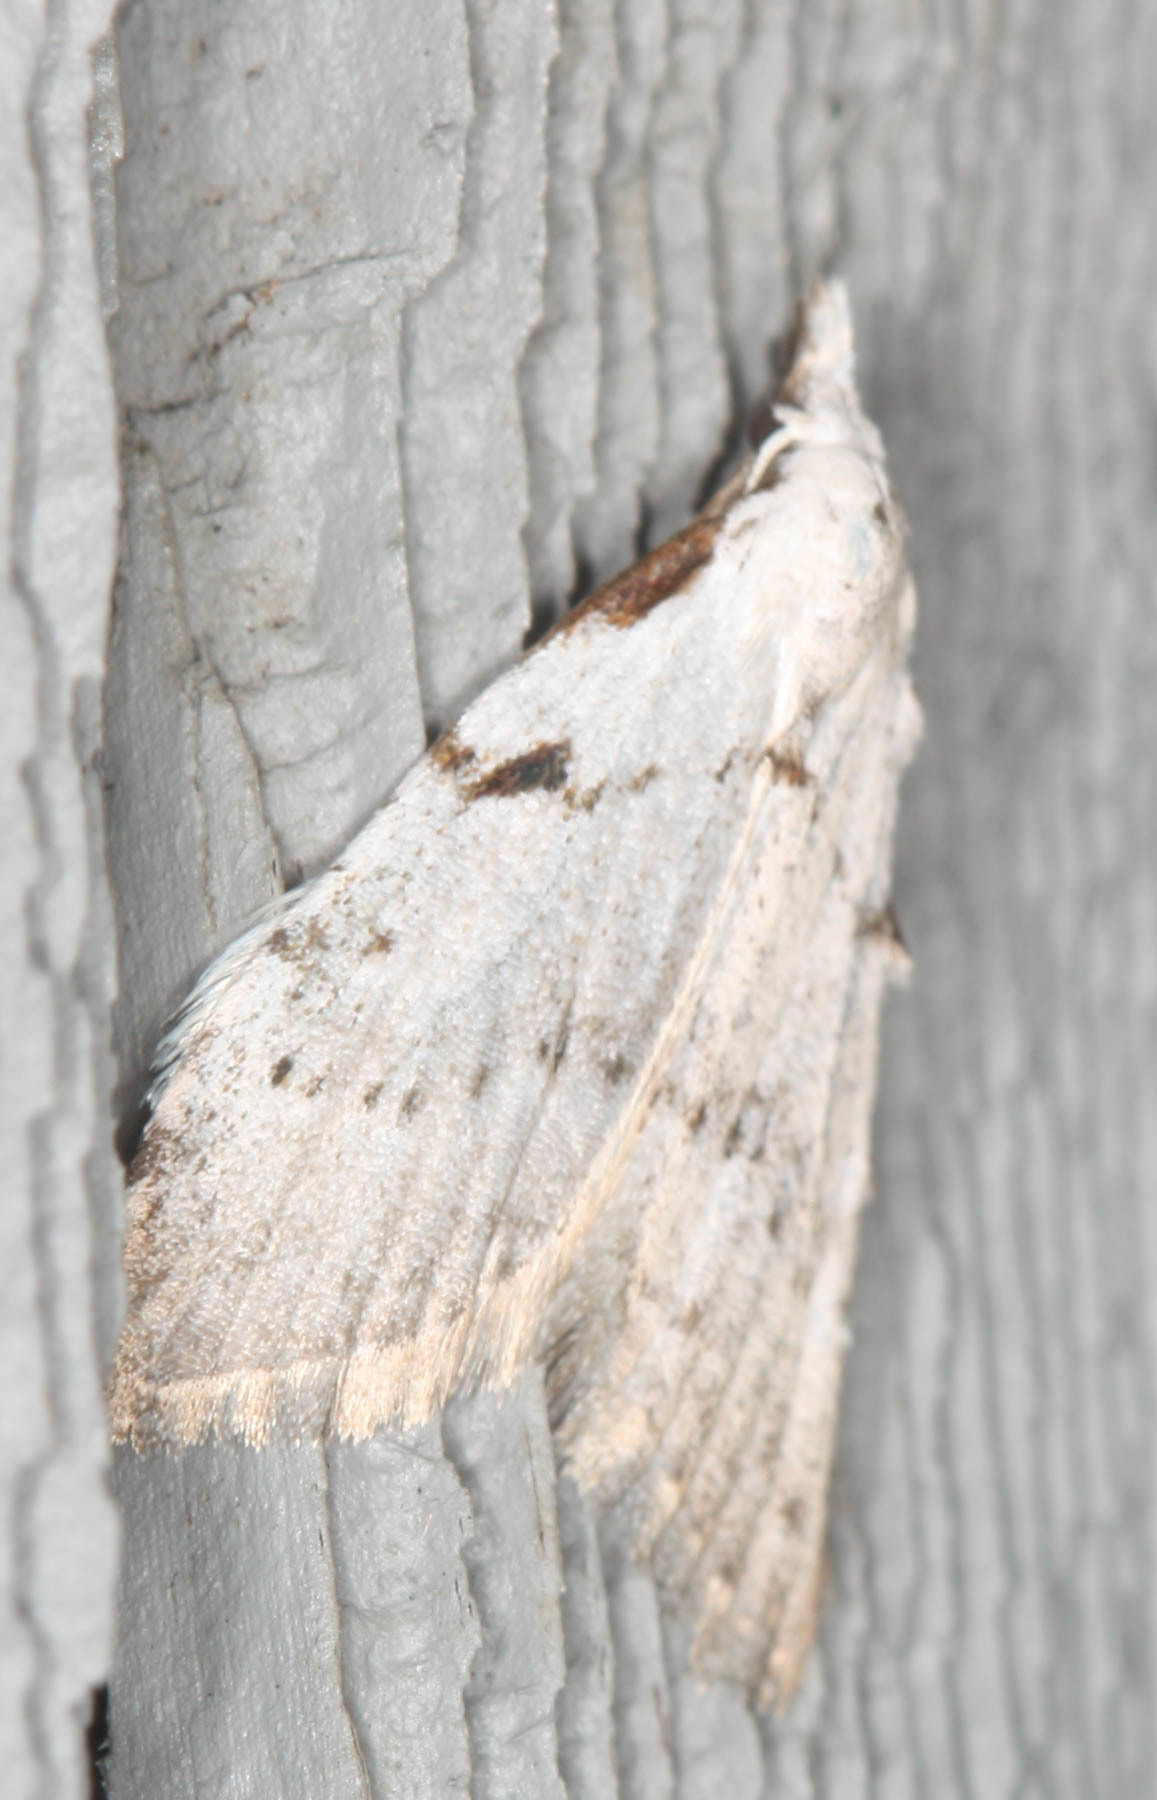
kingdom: Animalia
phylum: Arthropoda
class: Insecta
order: Lepidoptera
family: Nolidae
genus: Nola
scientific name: Nola minna
